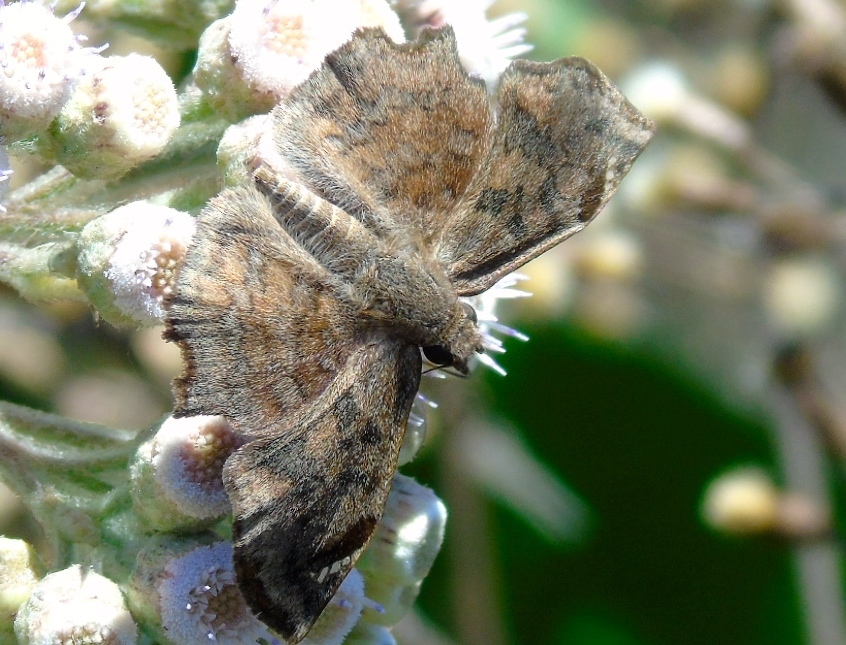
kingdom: Animalia
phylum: Arthropoda
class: Insecta
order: Lepidoptera
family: Hesperiidae
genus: Antigonus
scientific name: Antigonus erosus
